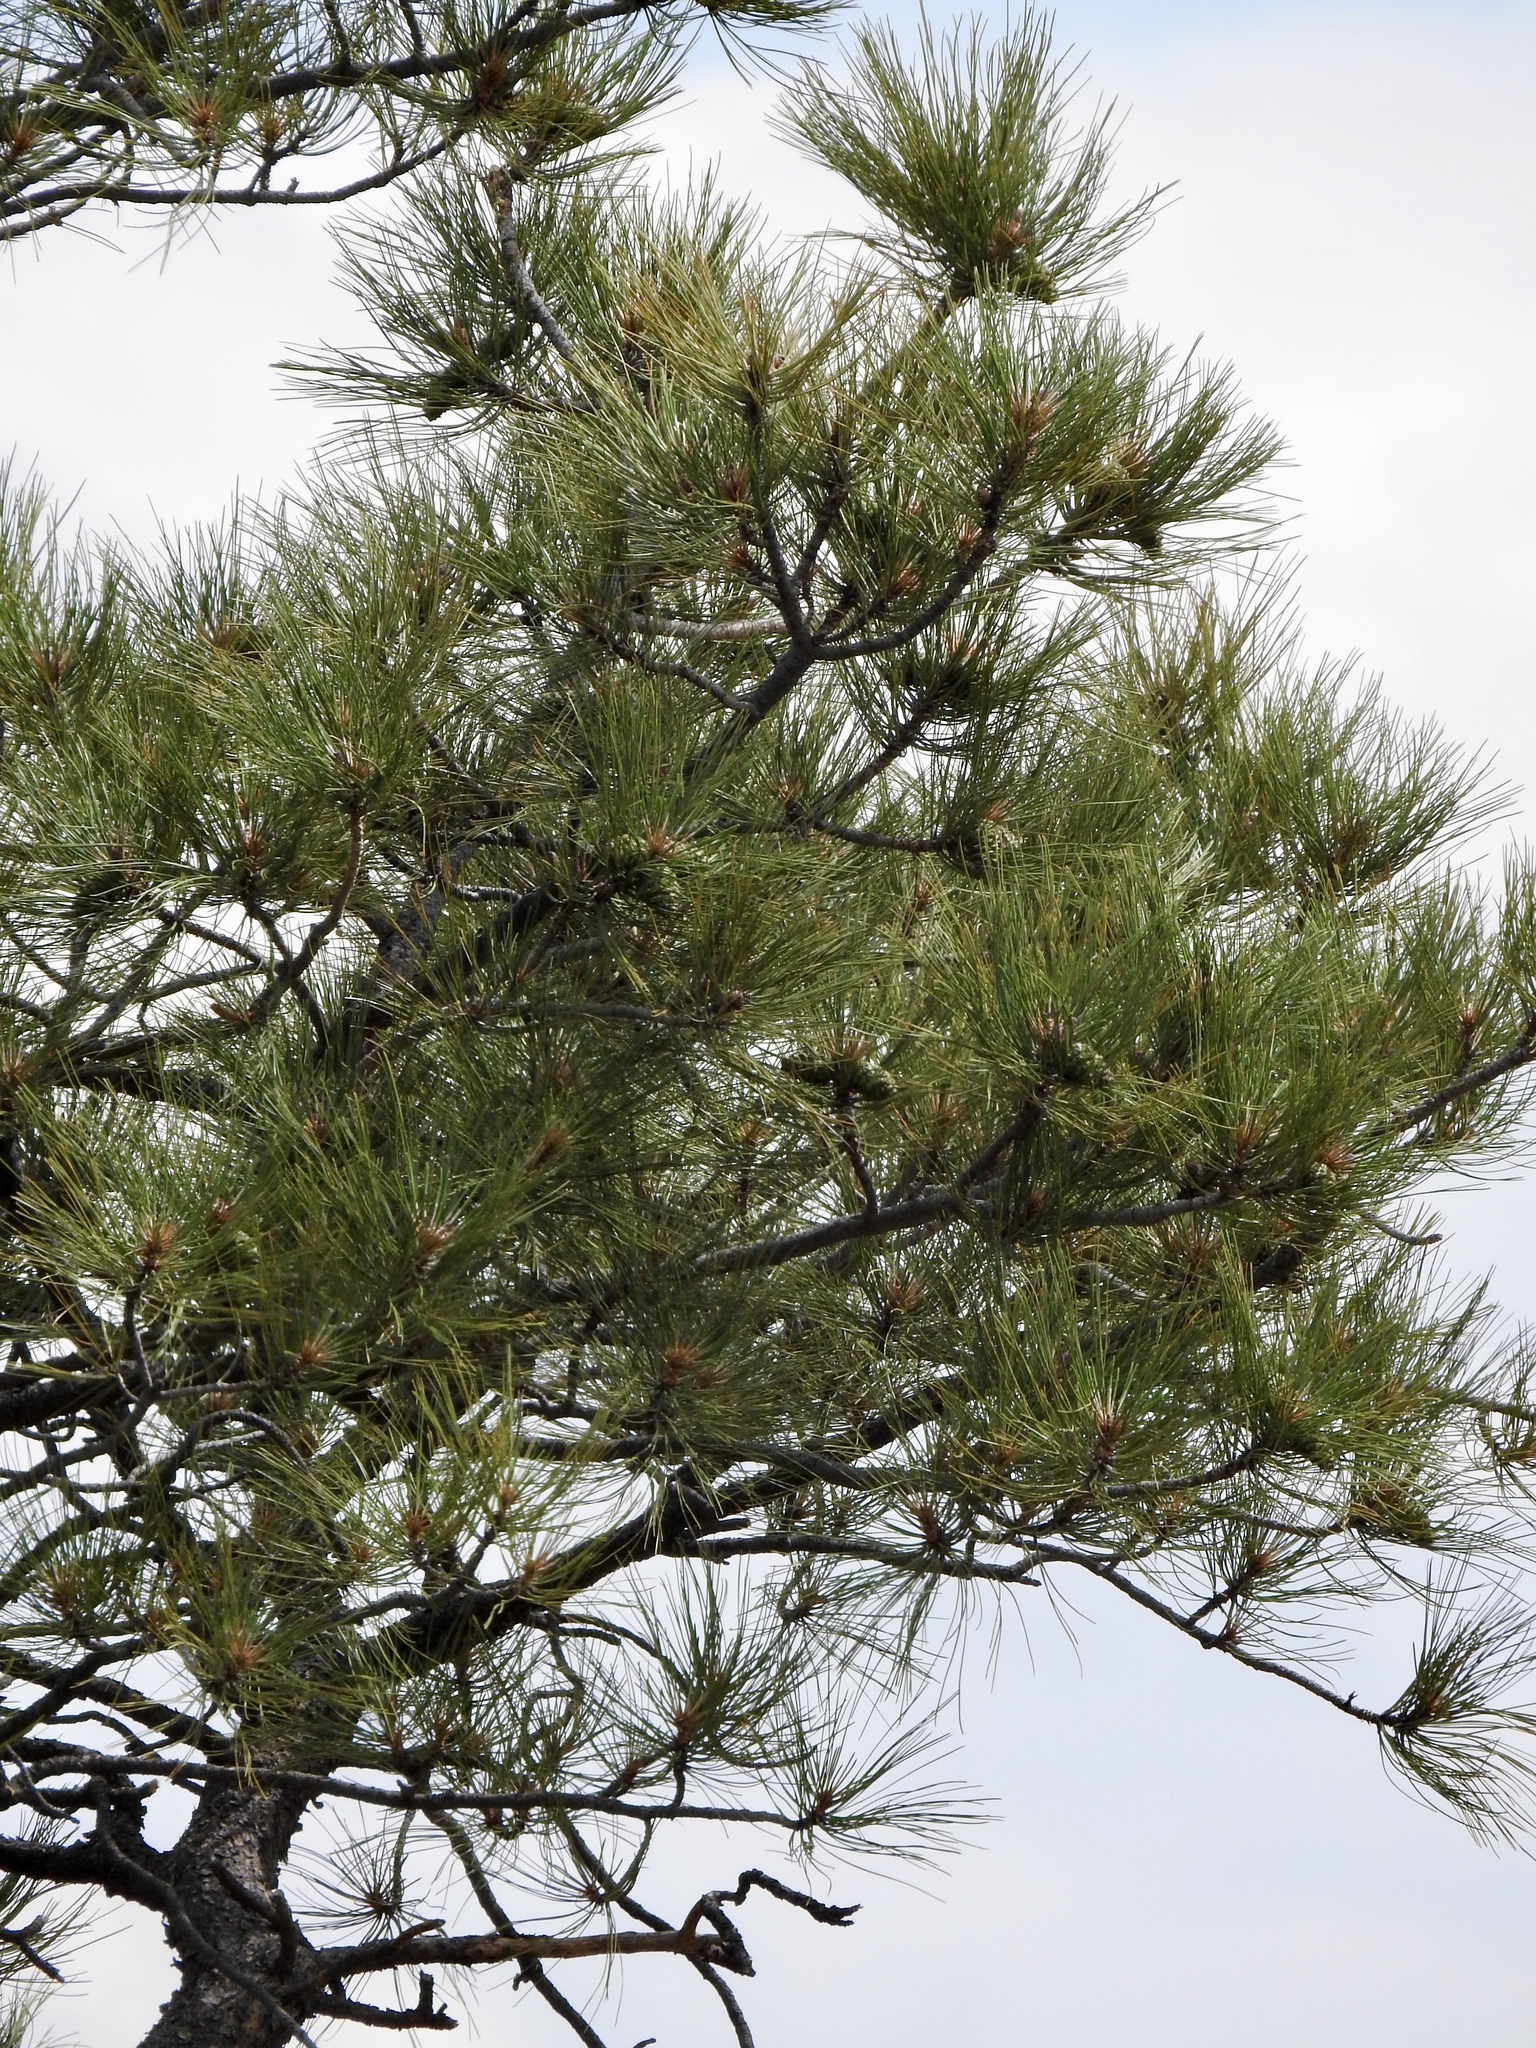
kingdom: Plantae
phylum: Tracheophyta
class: Pinopsida
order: Pinales
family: Pinaceae
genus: Pinus
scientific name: Pinus ponderosa
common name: Western yellow-pine
